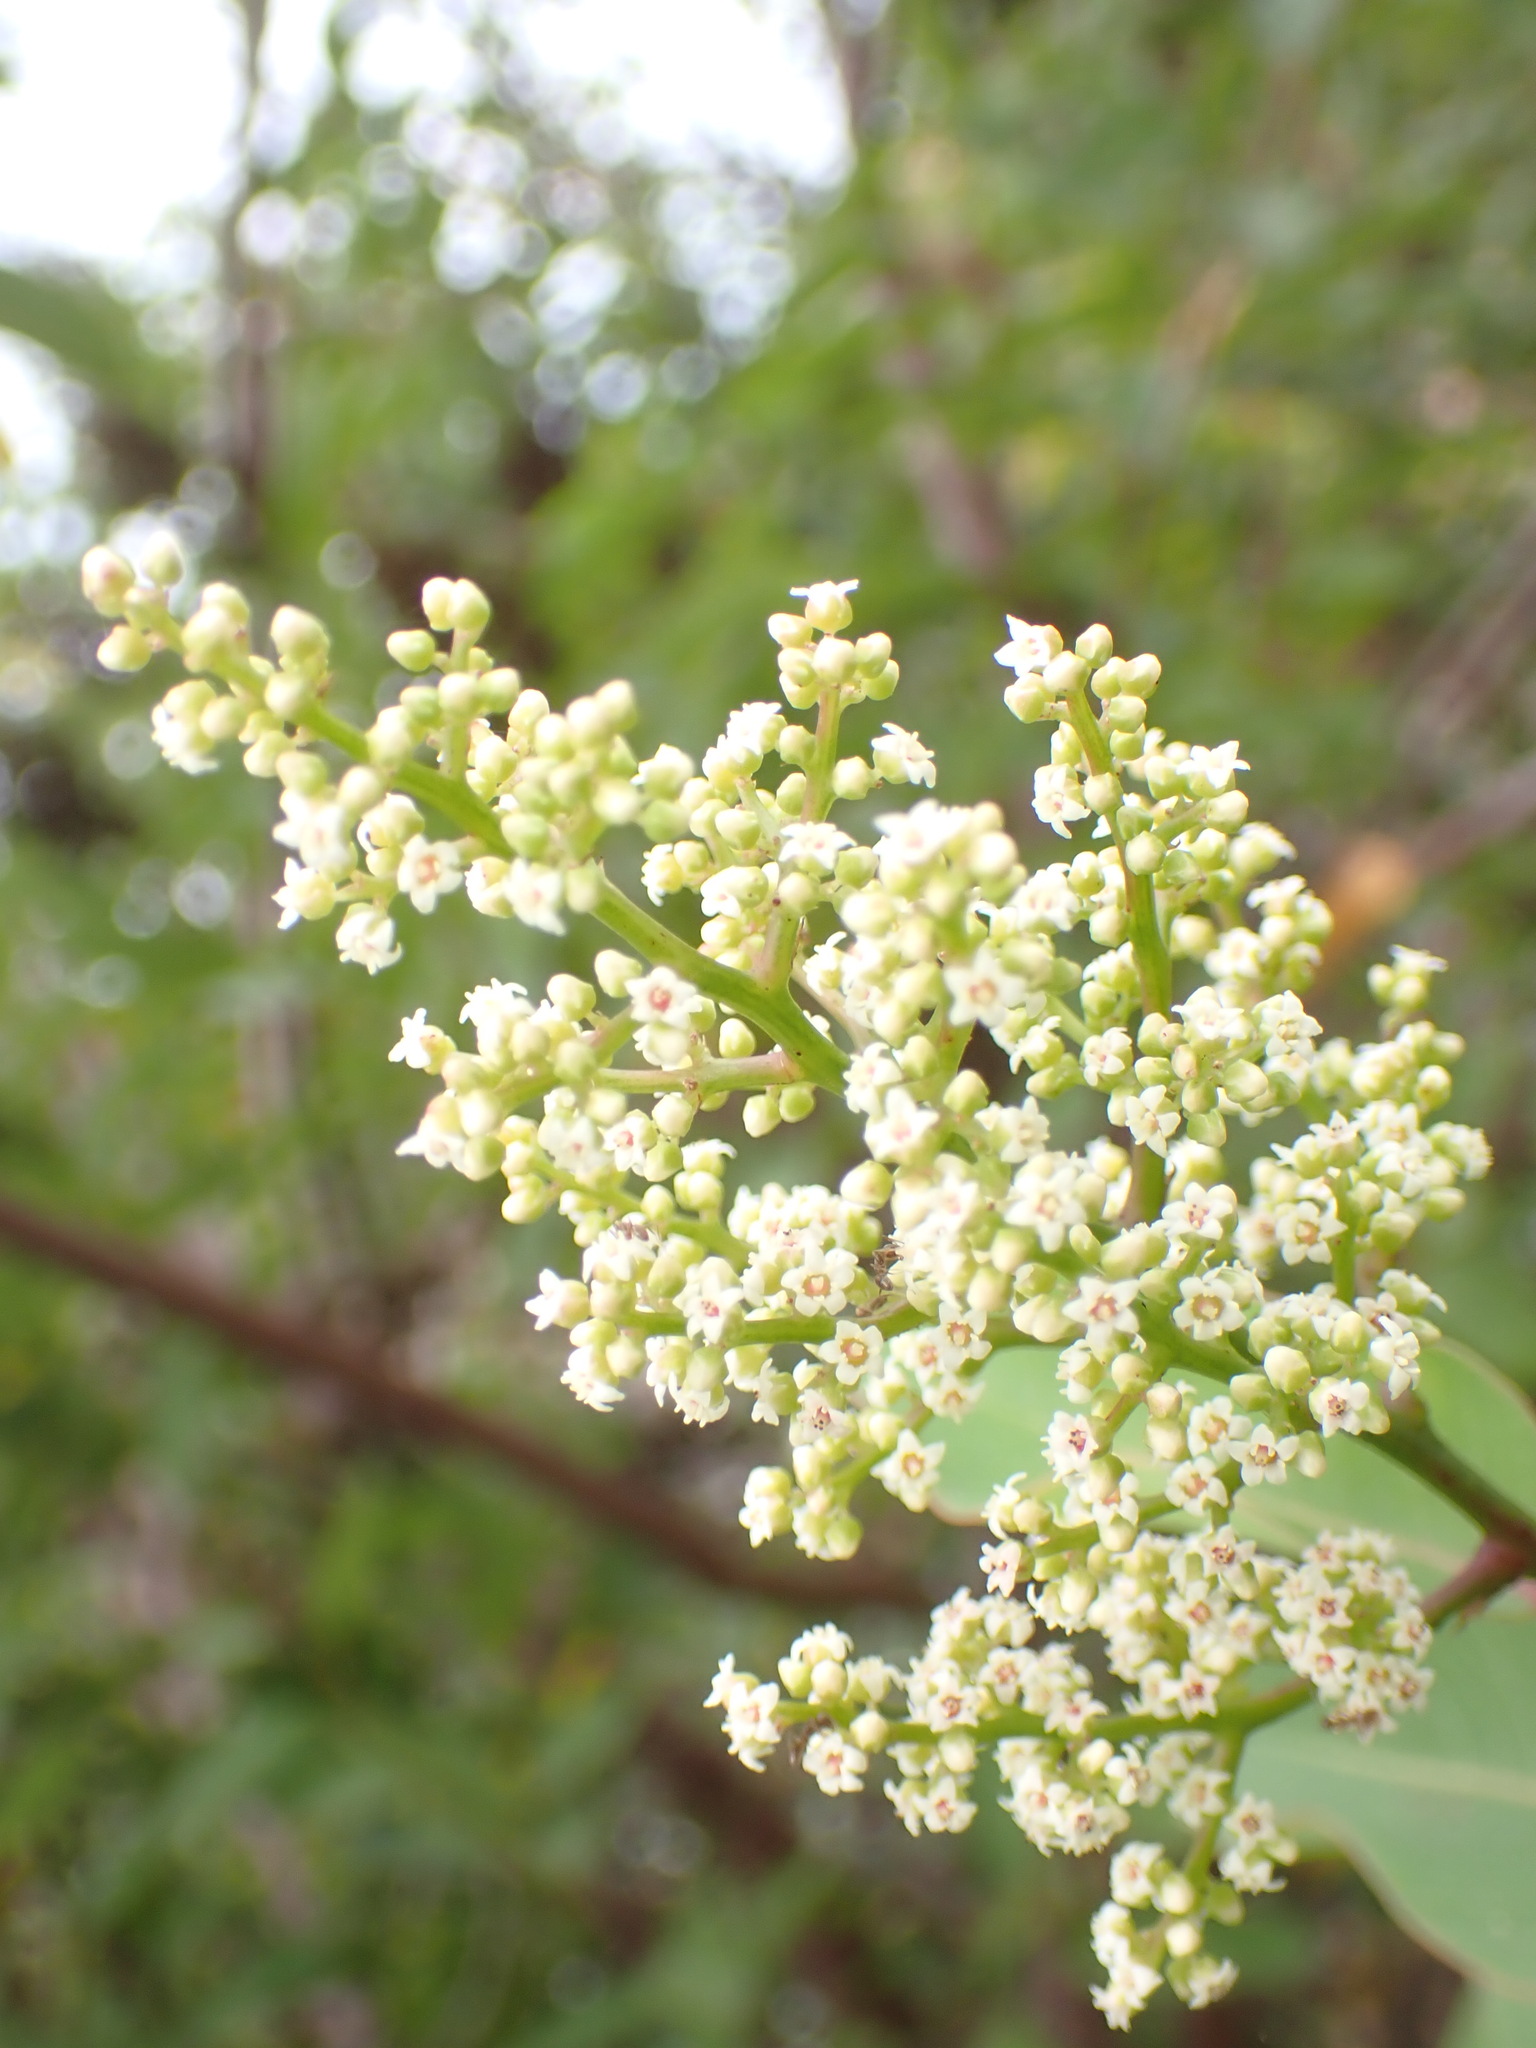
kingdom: Plantae
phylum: Tracheophyta
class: Magnoliopsida
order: Sapindales
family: Anacardiaceae
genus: Malosma
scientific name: Malosma laurina
